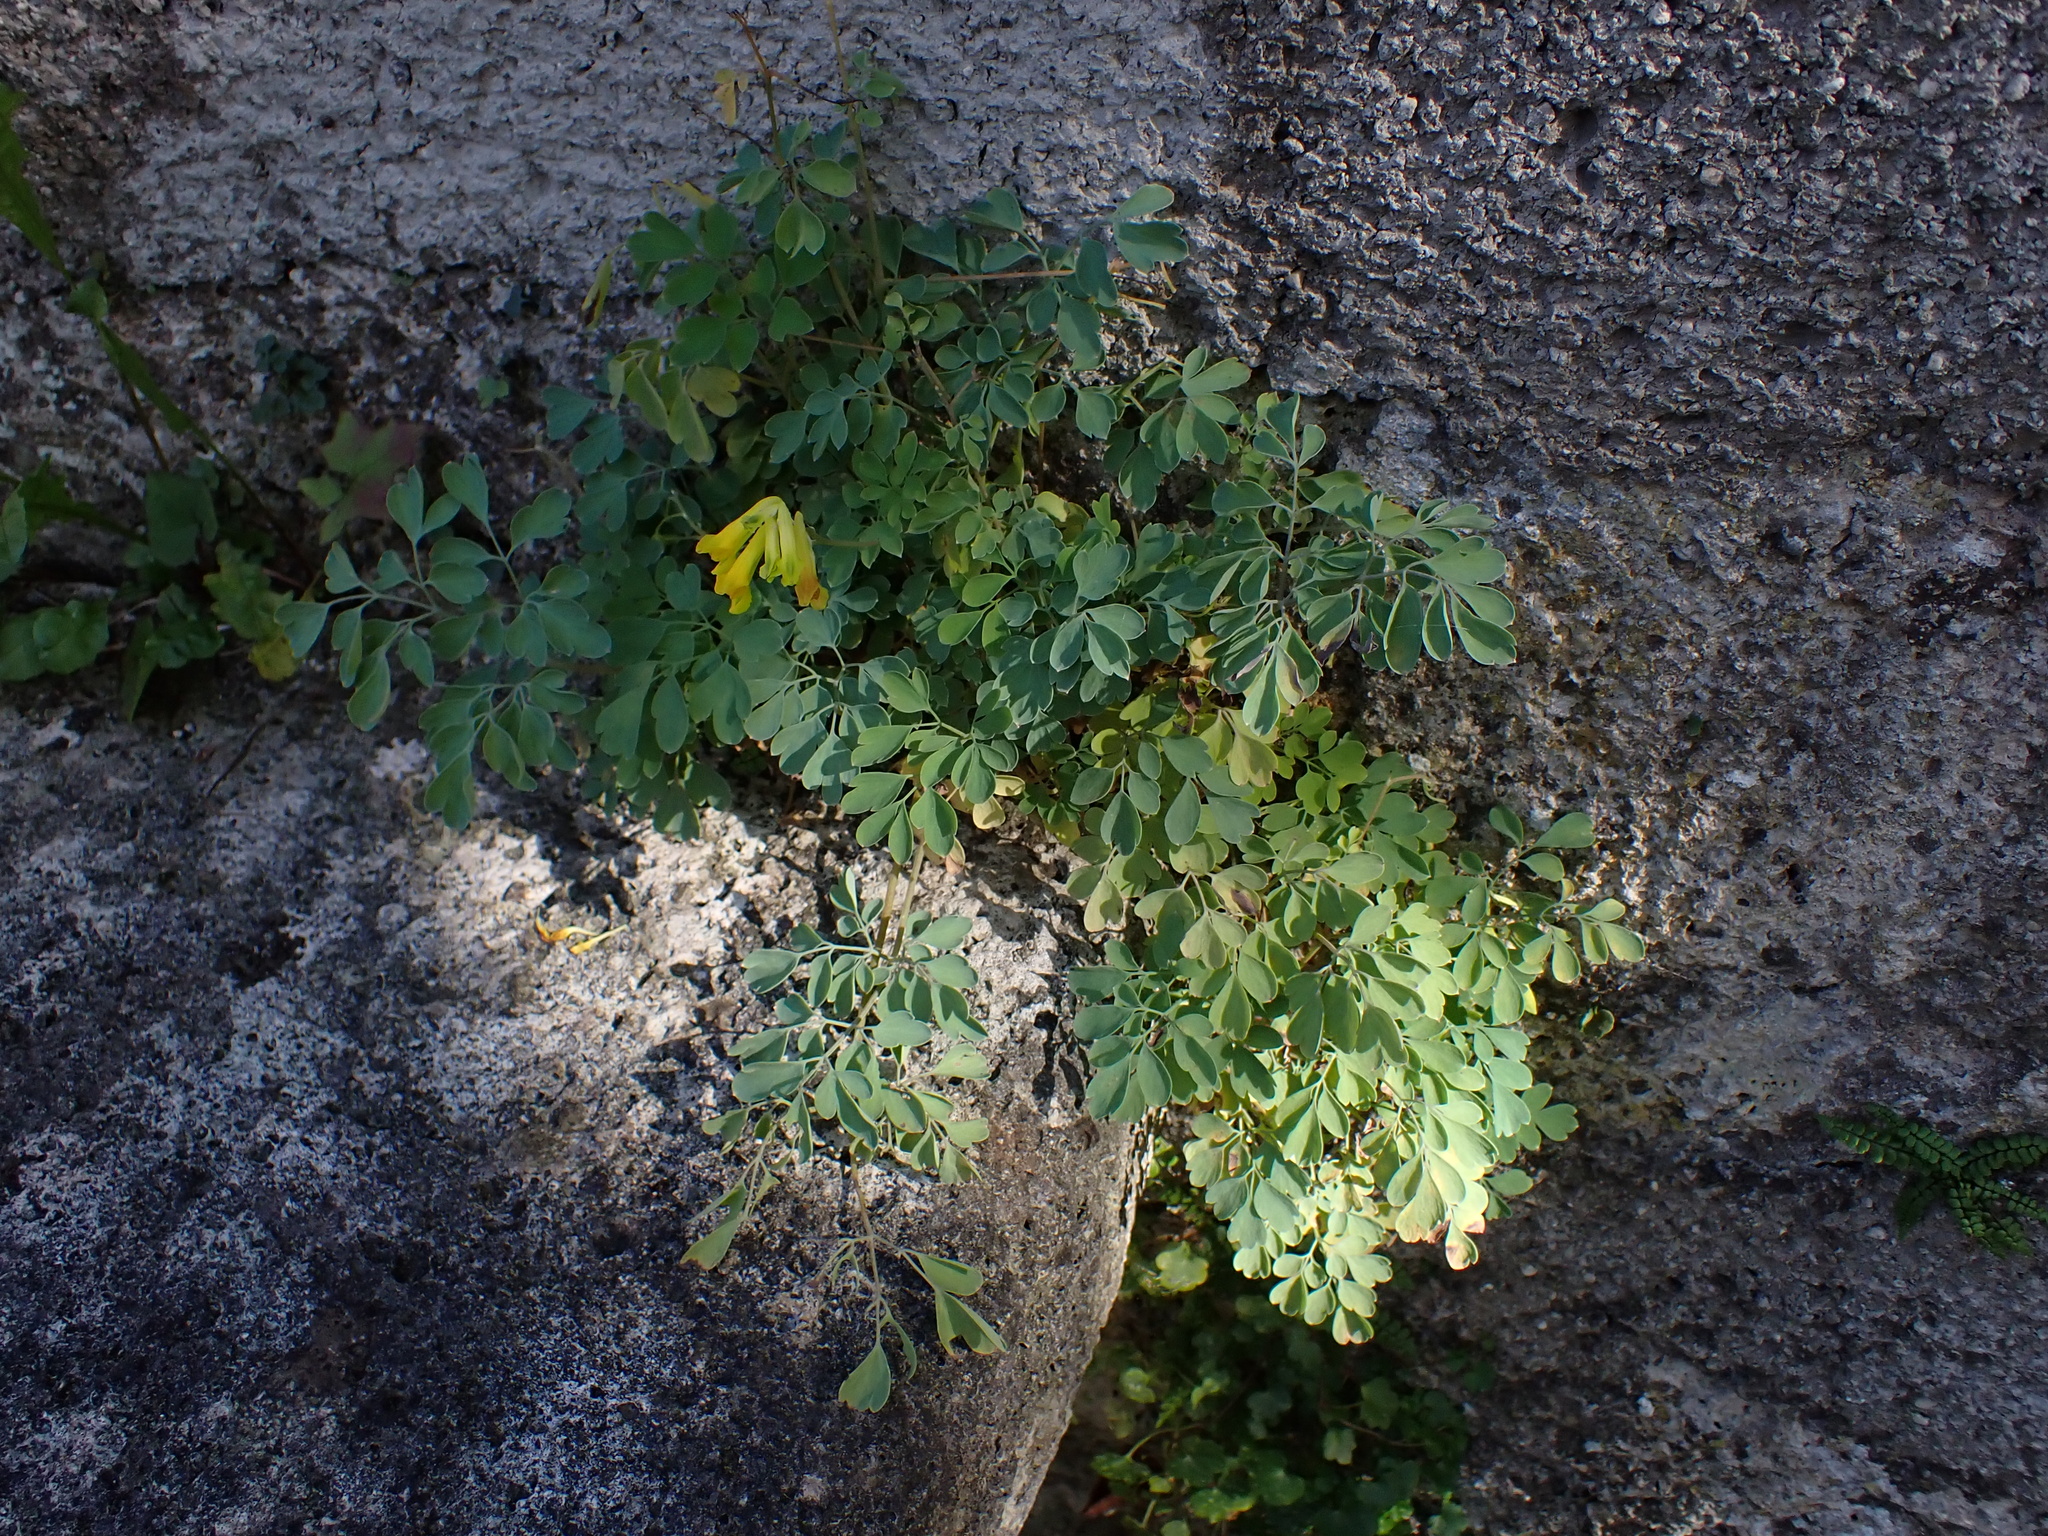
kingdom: Plantae
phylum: Tracheophyta
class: Magnoliopsida
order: Ranunculales
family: Papaveraceae
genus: Pseudofumaria
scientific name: Pseudofumaria lutea
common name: Yellow corydalis
